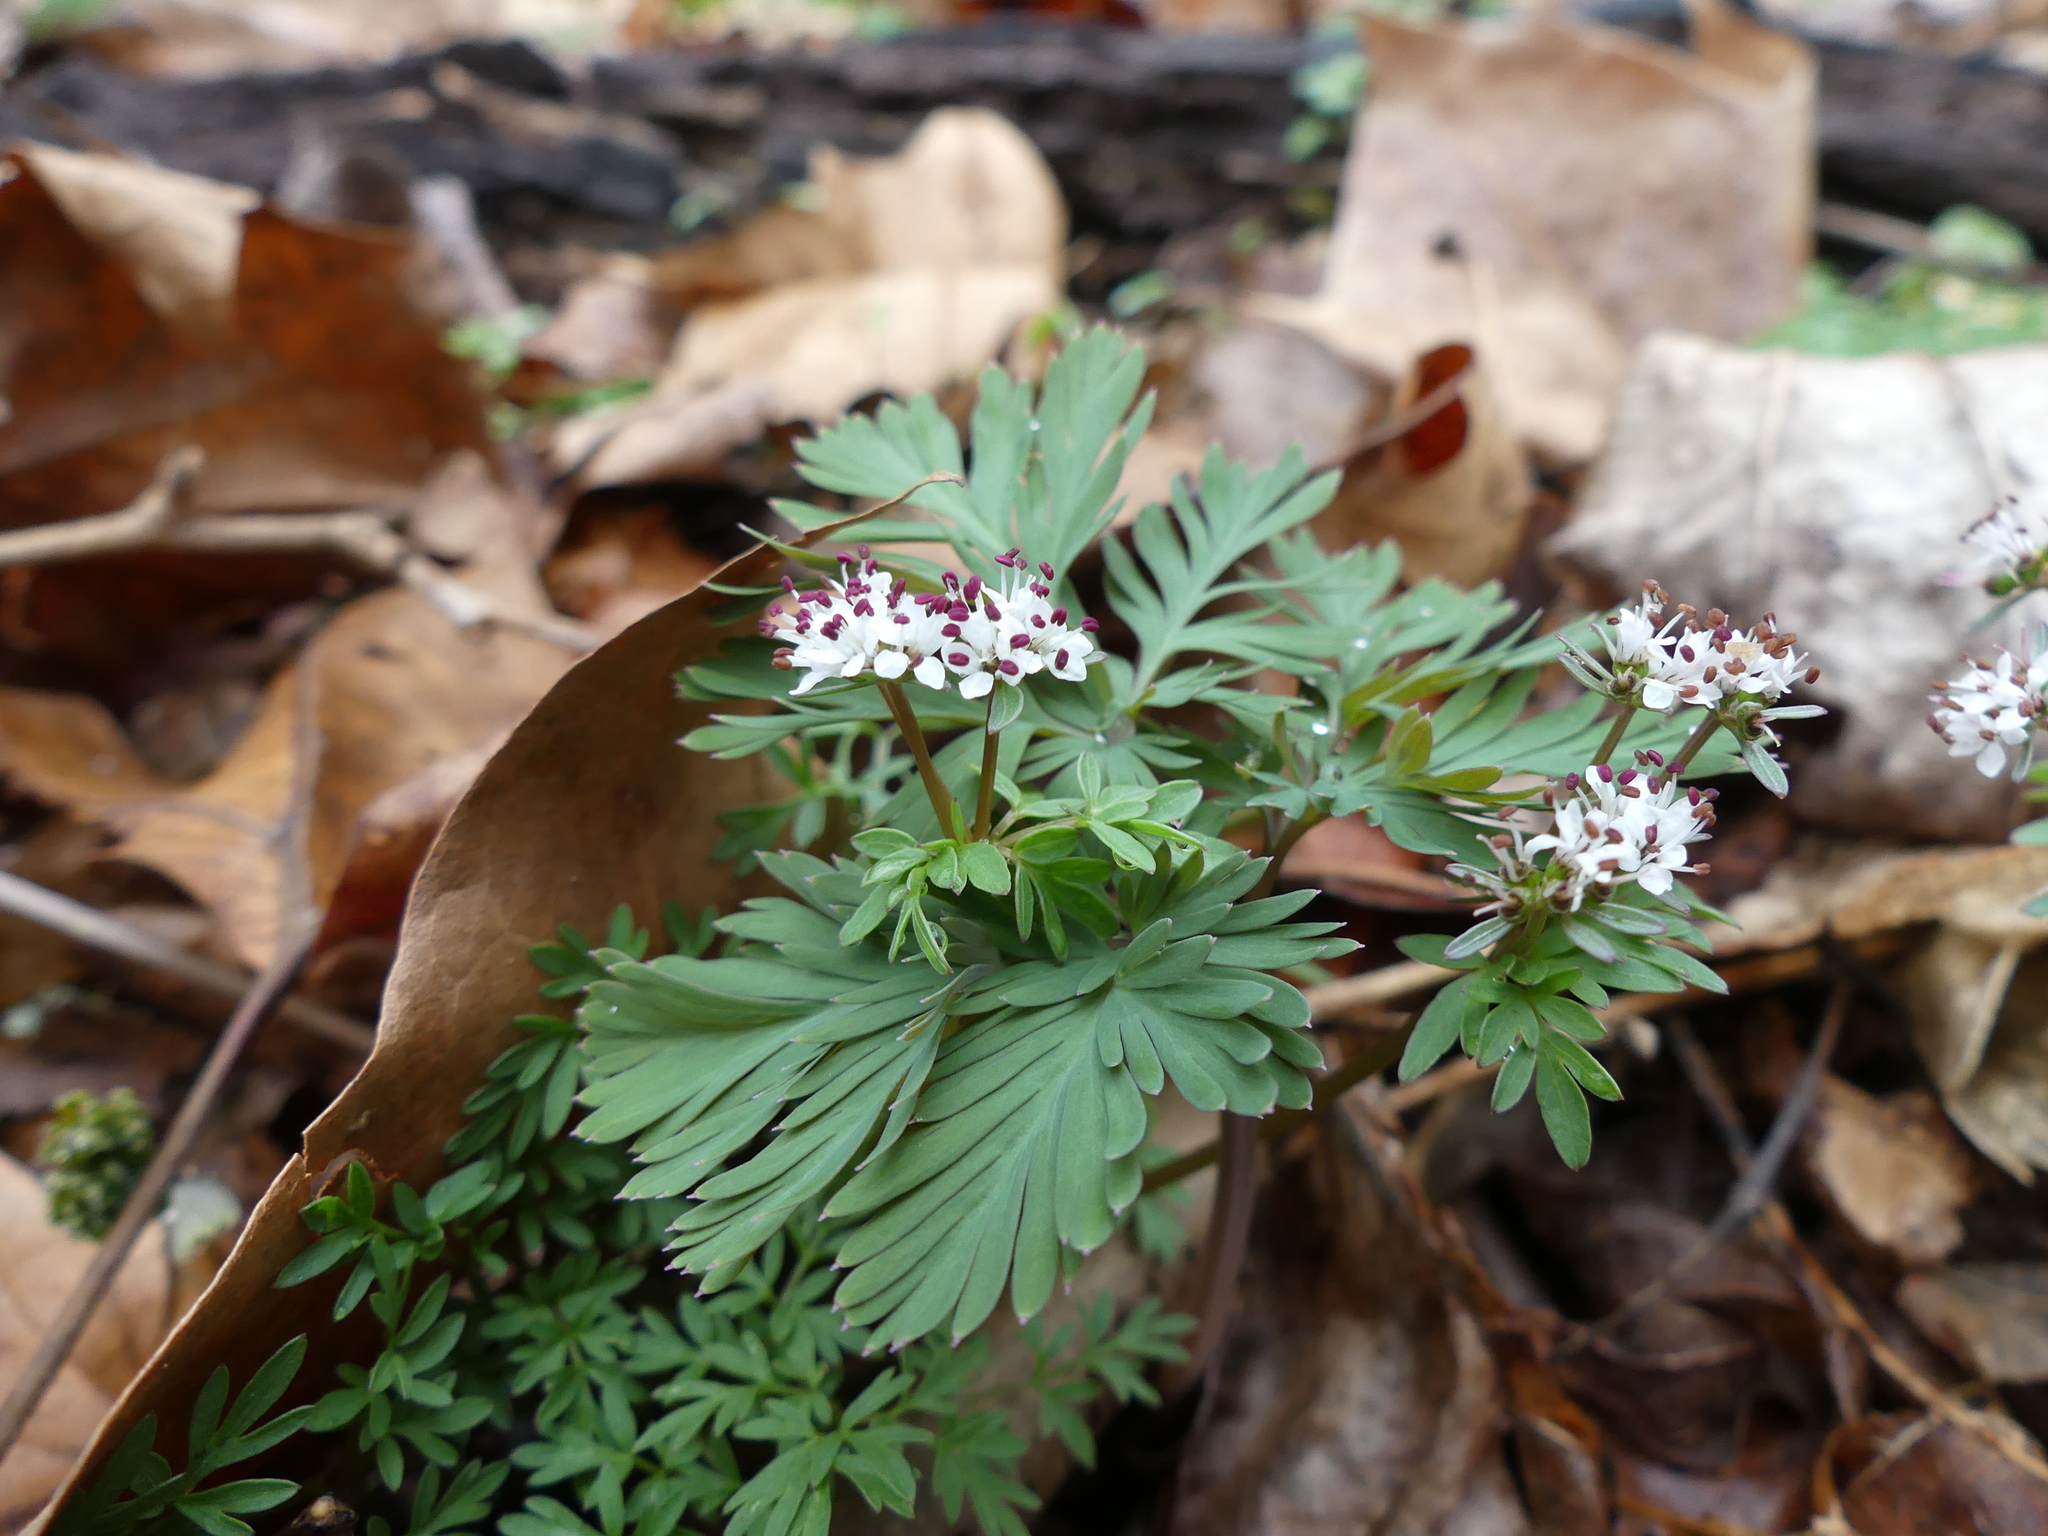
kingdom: Plantae
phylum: Tracheophyta
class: Magnoliopsida
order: Apiales
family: Apiaceae
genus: Erigenia
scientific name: Erigenia bulbosa
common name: Pepper-and-salt
